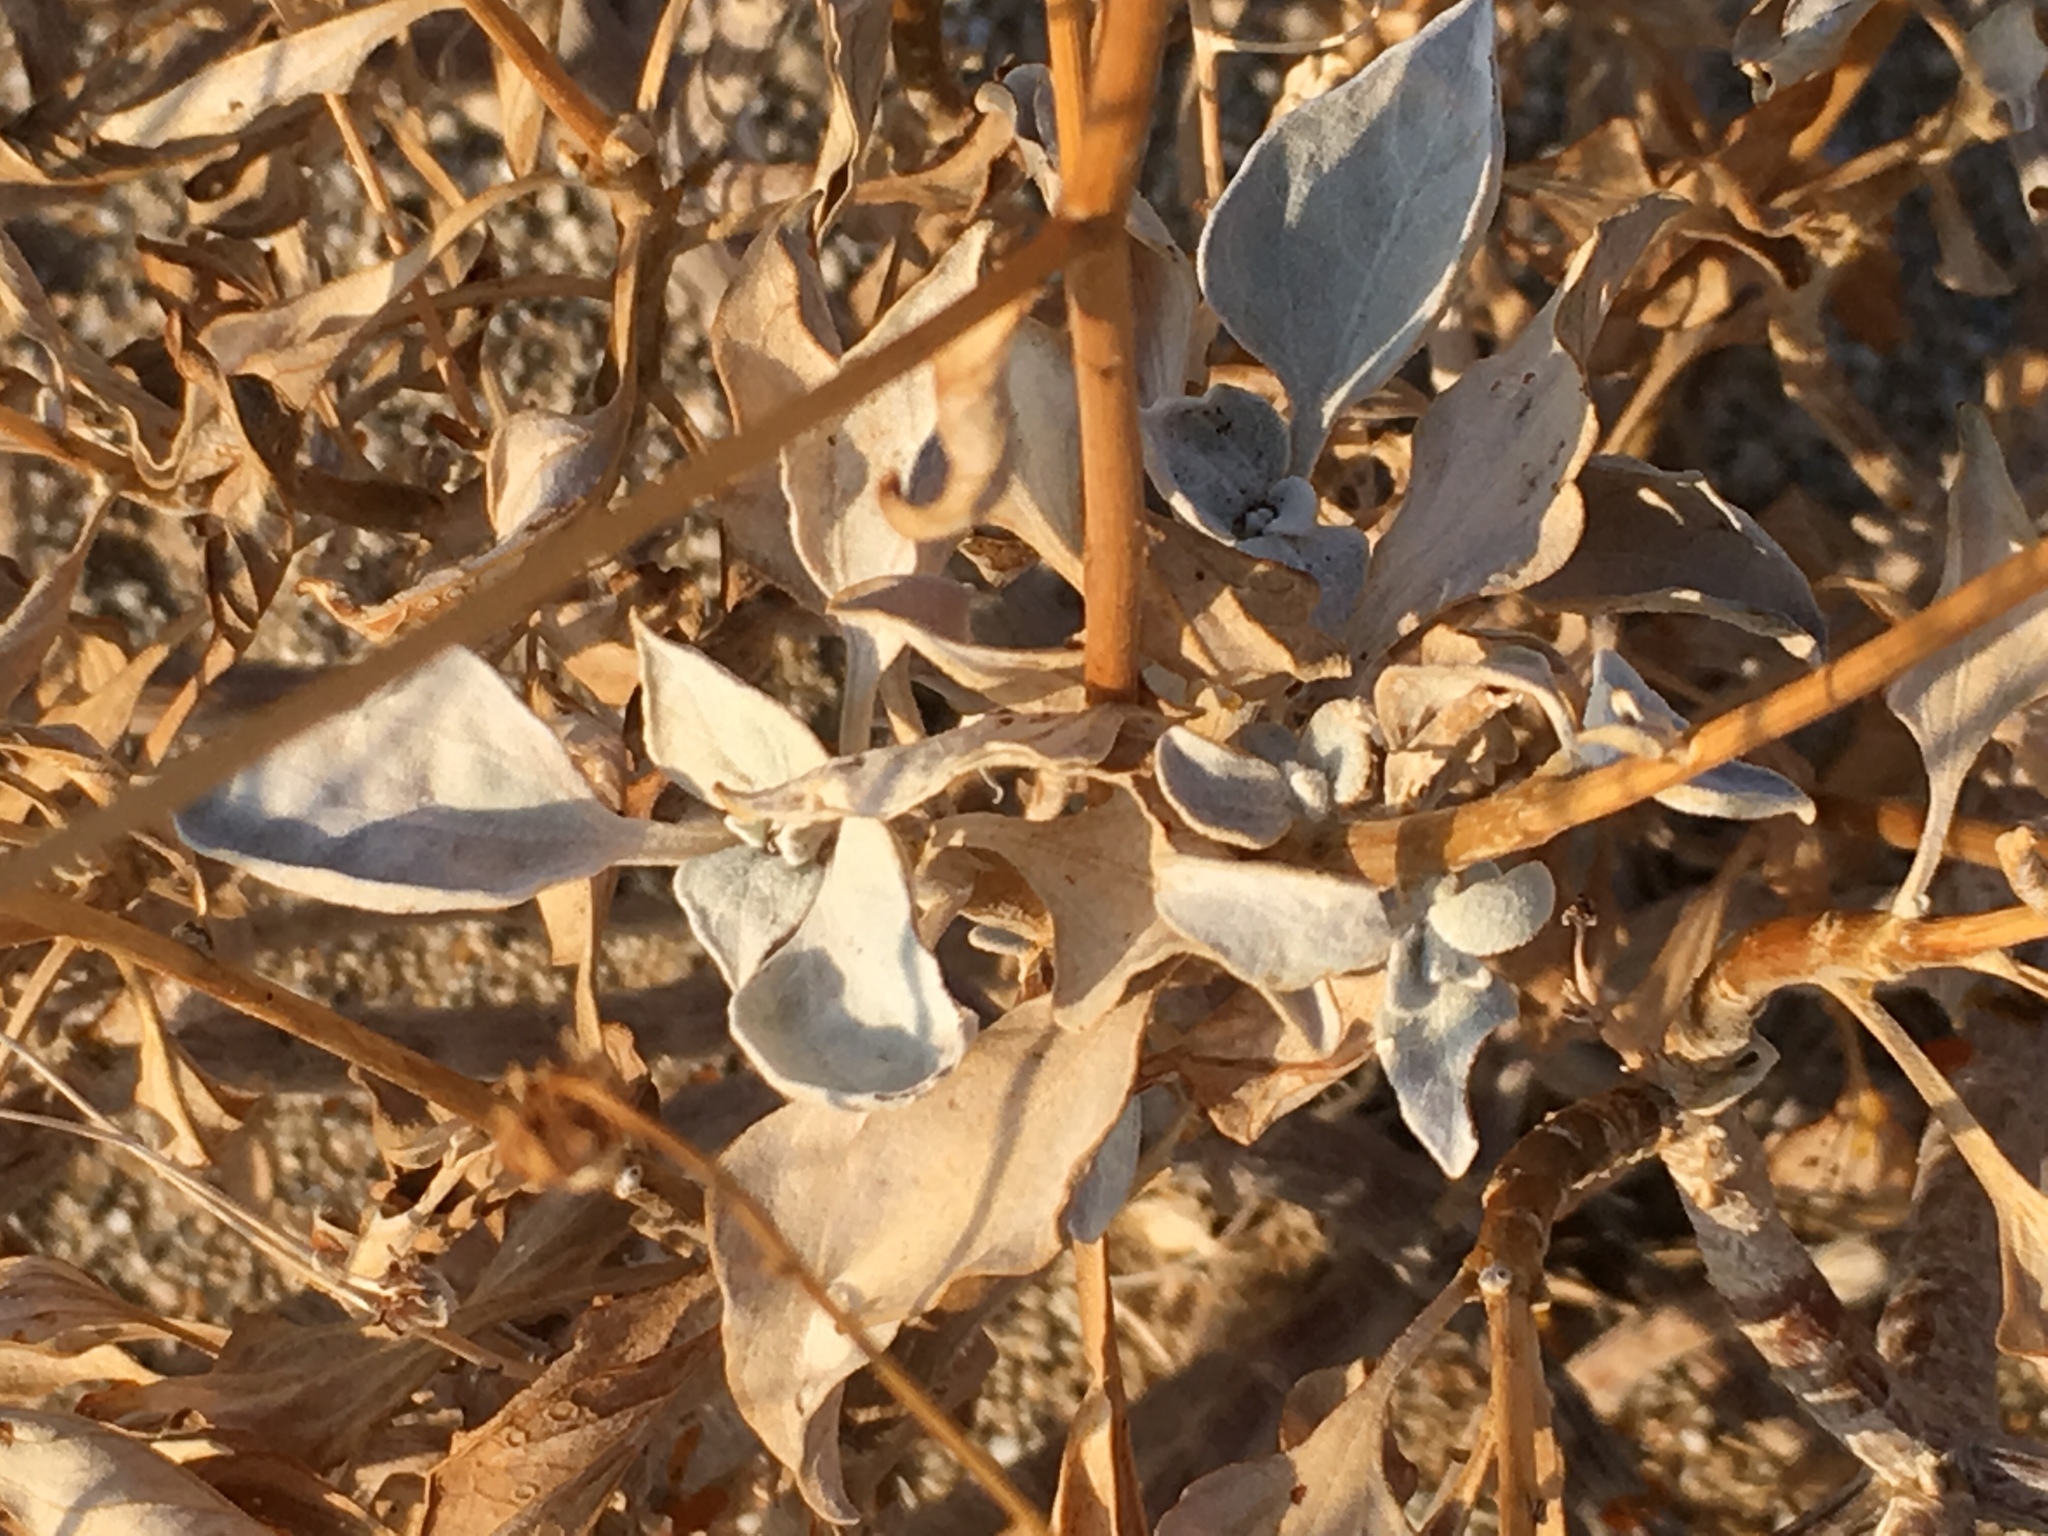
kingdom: Plantae
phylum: Tracheophyta
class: Magnoliopsida
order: Asterales
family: Asteraceae
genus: Encelia
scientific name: Encelia farinosa
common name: Brittlebush
